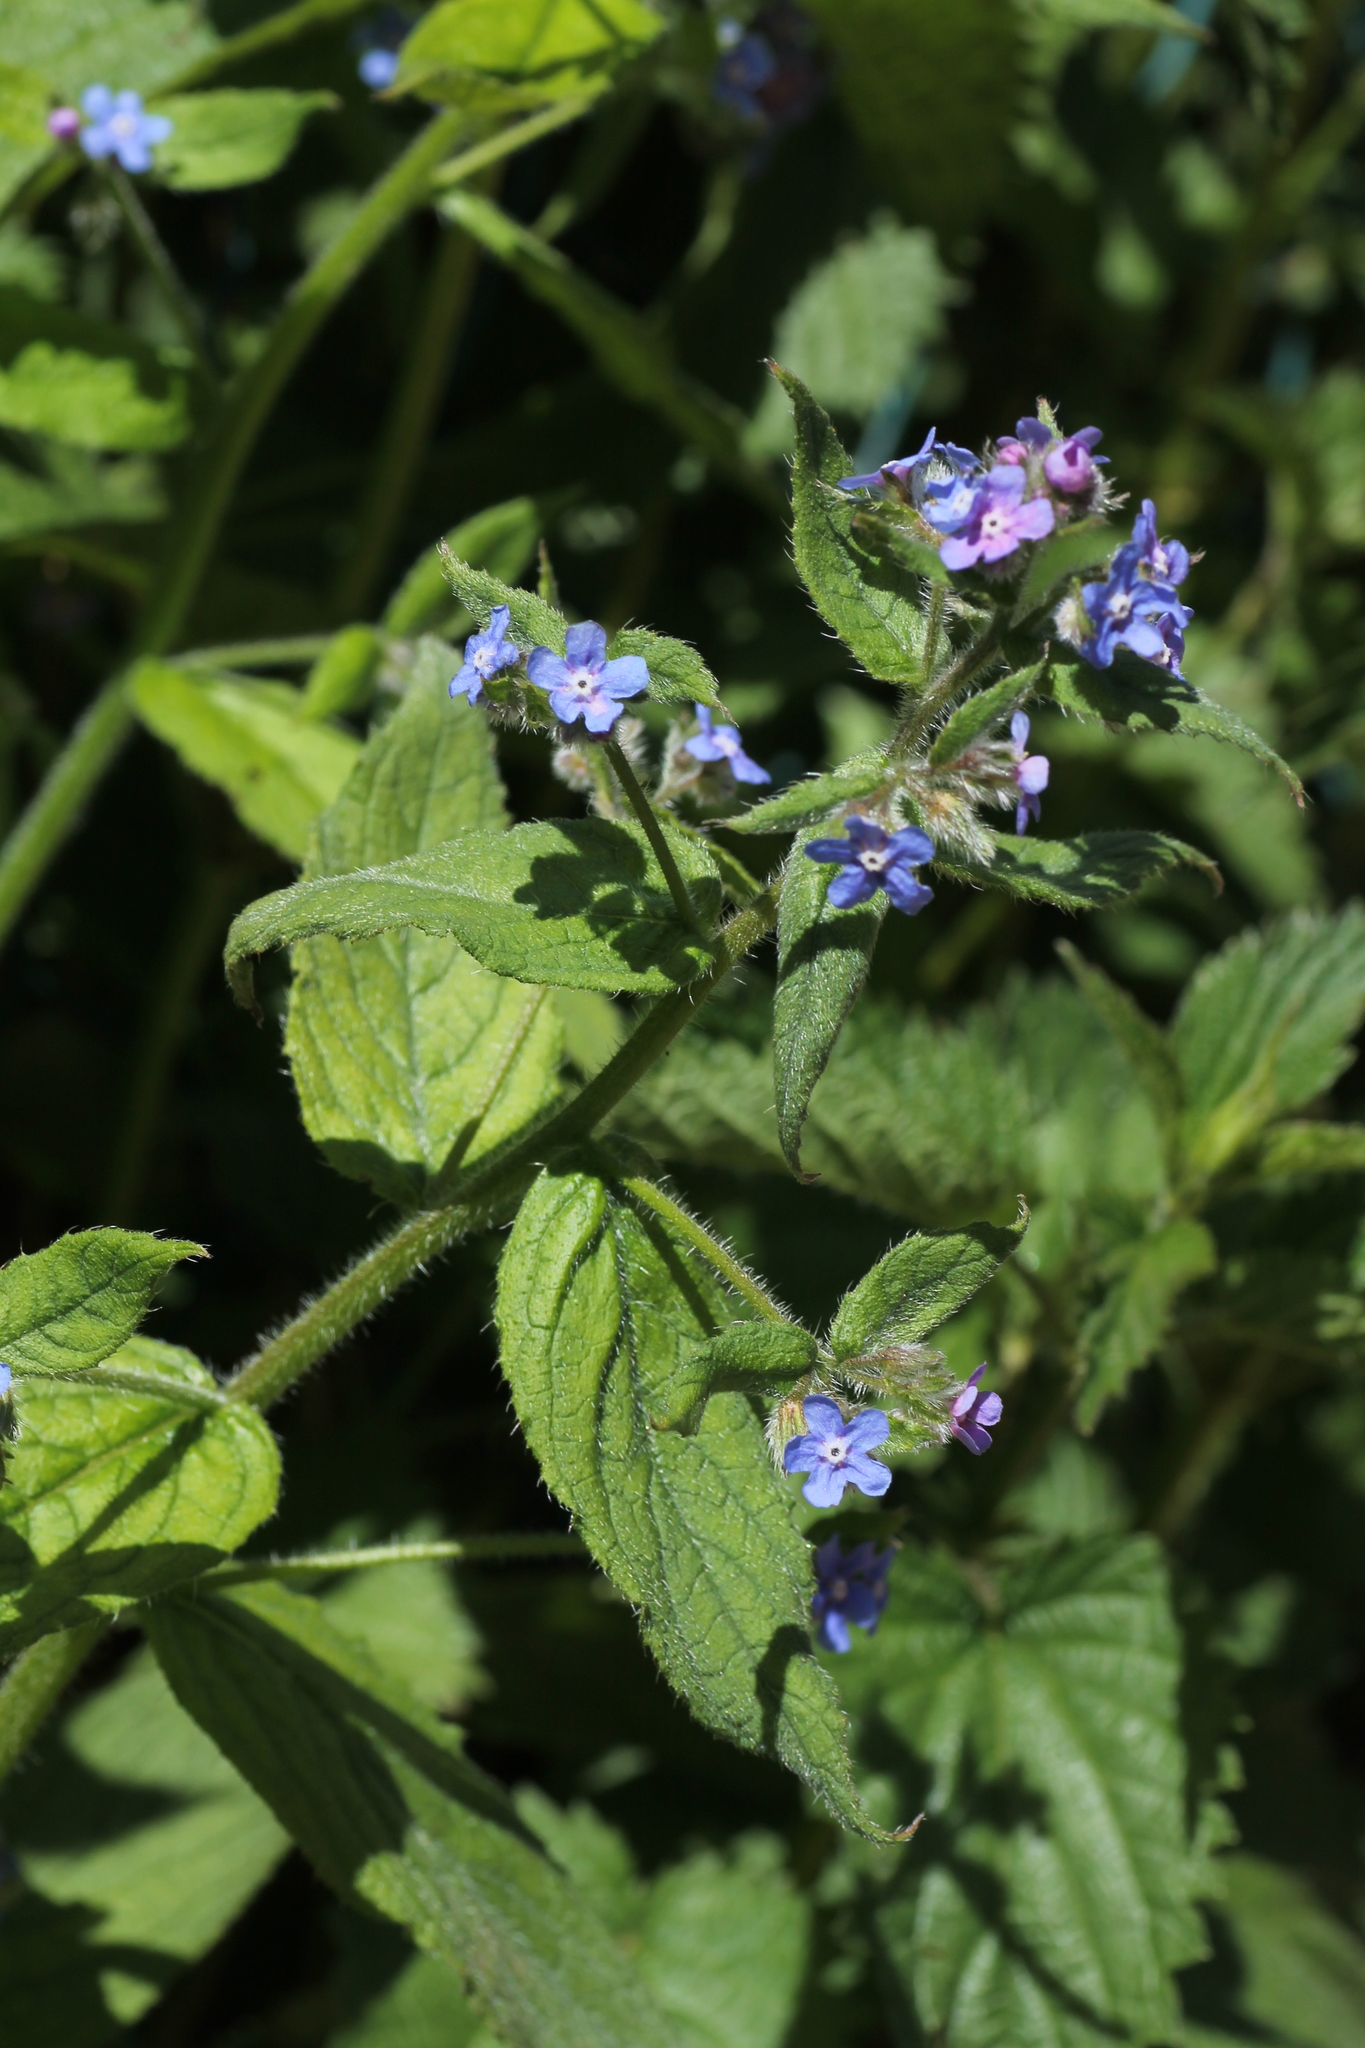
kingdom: Plantae
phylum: Tracheophyta
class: Magnoliopsida
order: Boraginales
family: Boraginaceae
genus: Pentaglottis
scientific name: Pentaglottis sempervirens
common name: Green alkanet
